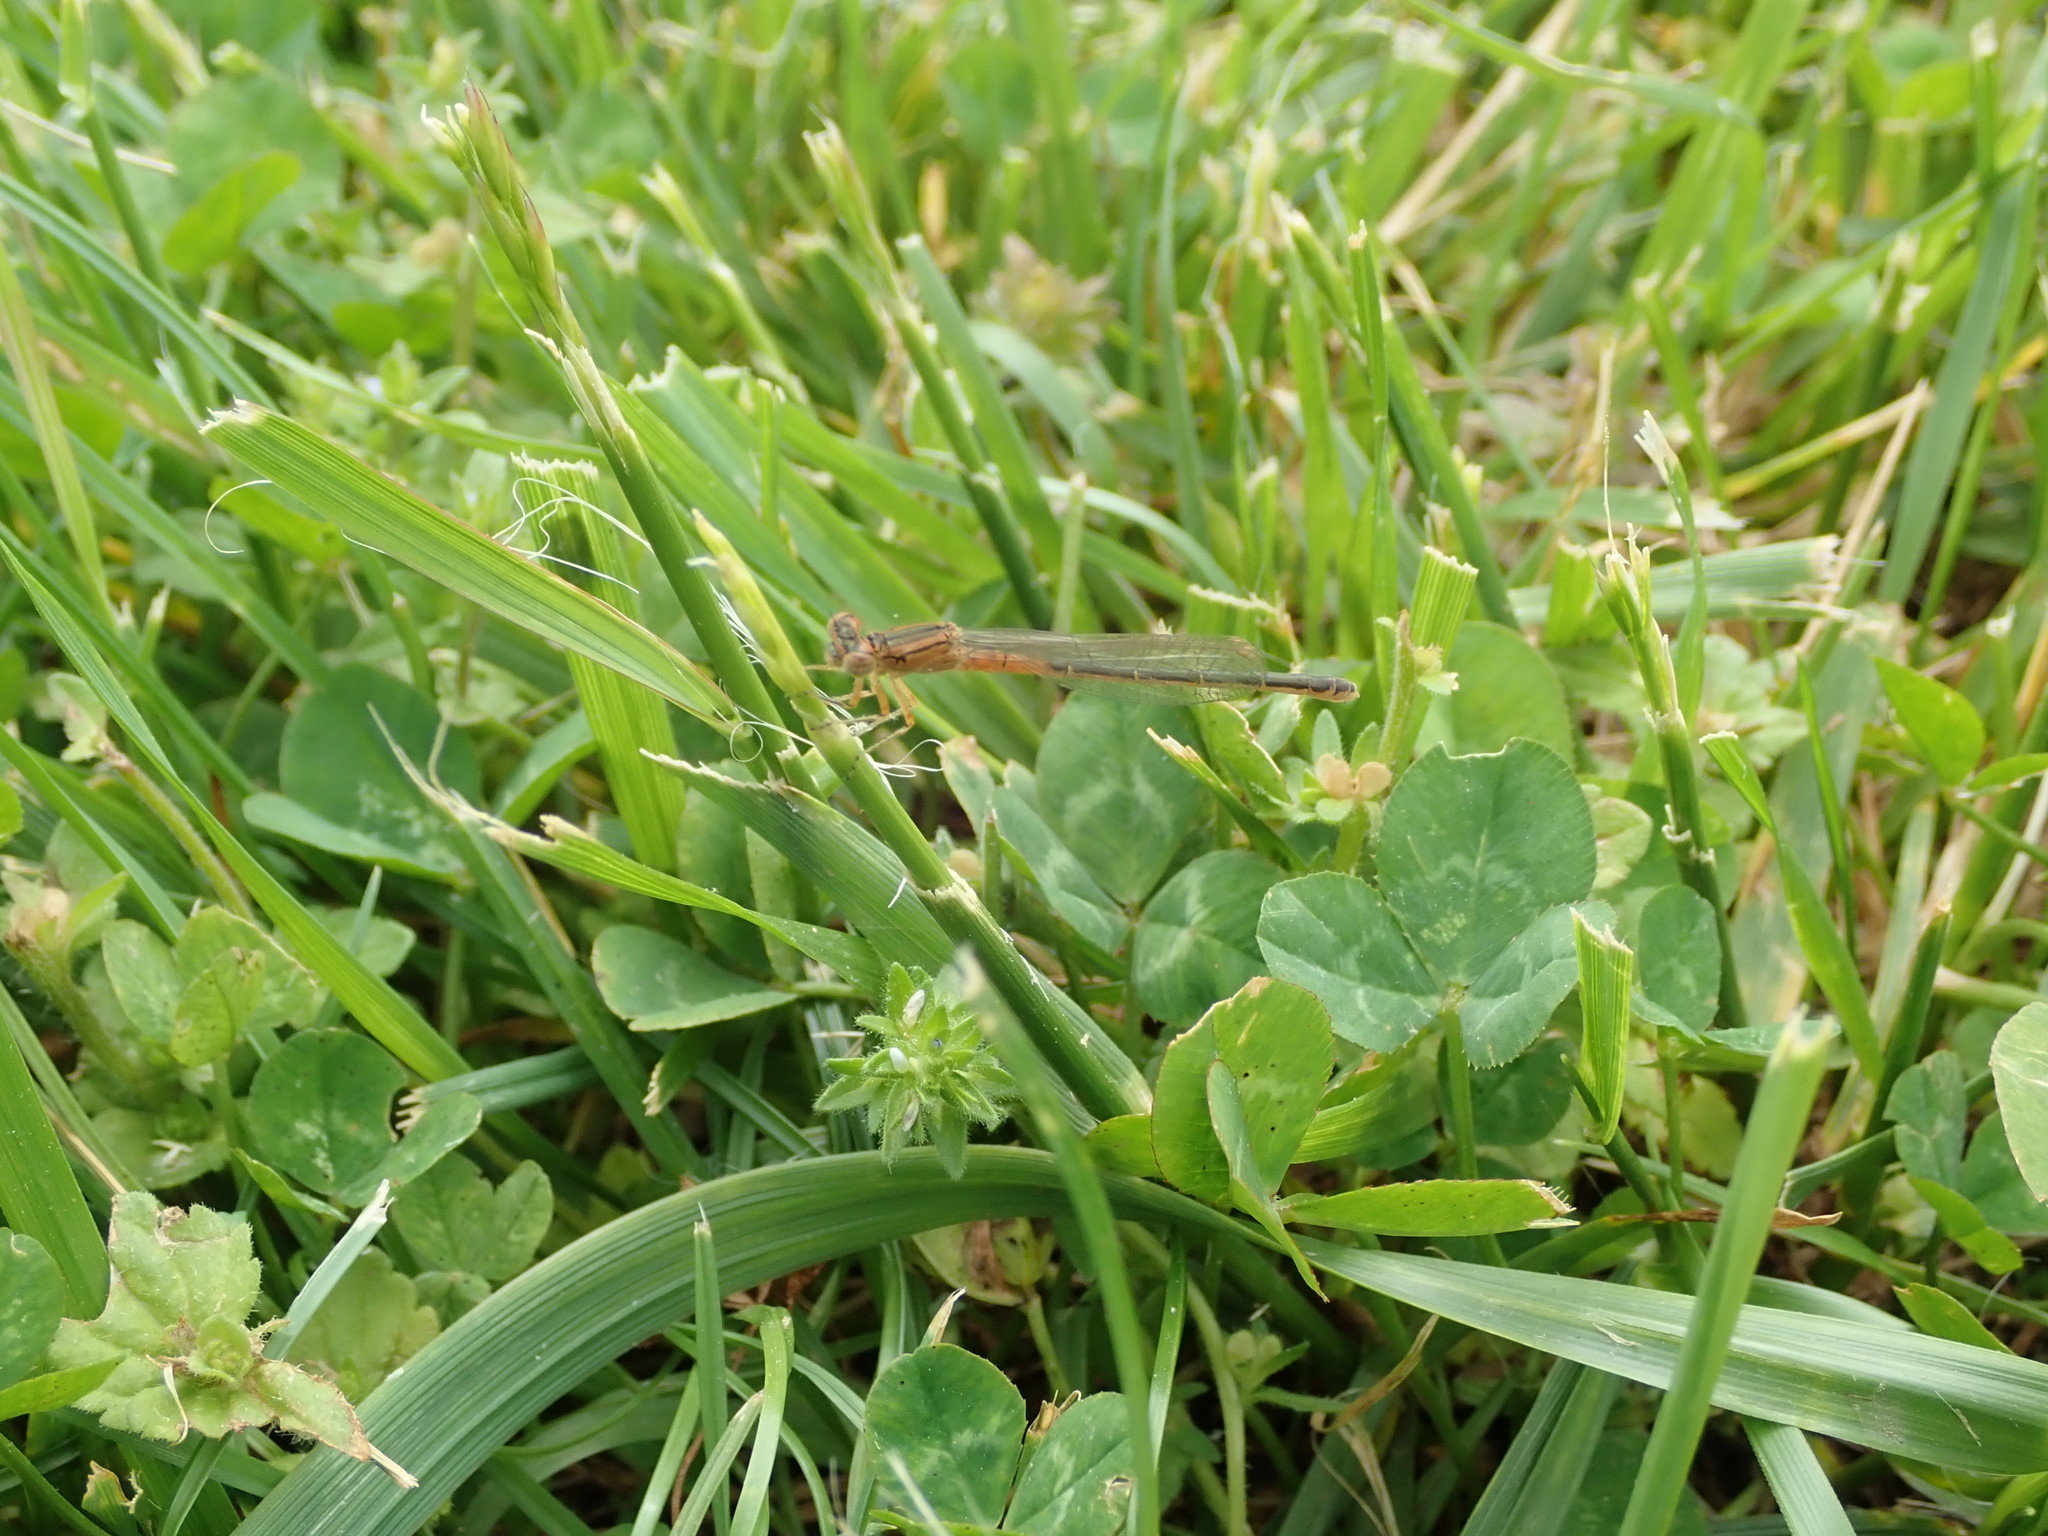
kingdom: Animalia
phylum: Arthropoda
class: Insecta
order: Odonata
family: Coenagrionidae
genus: Ischnura
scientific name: Ischnura verticalis
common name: Eastern forktail
